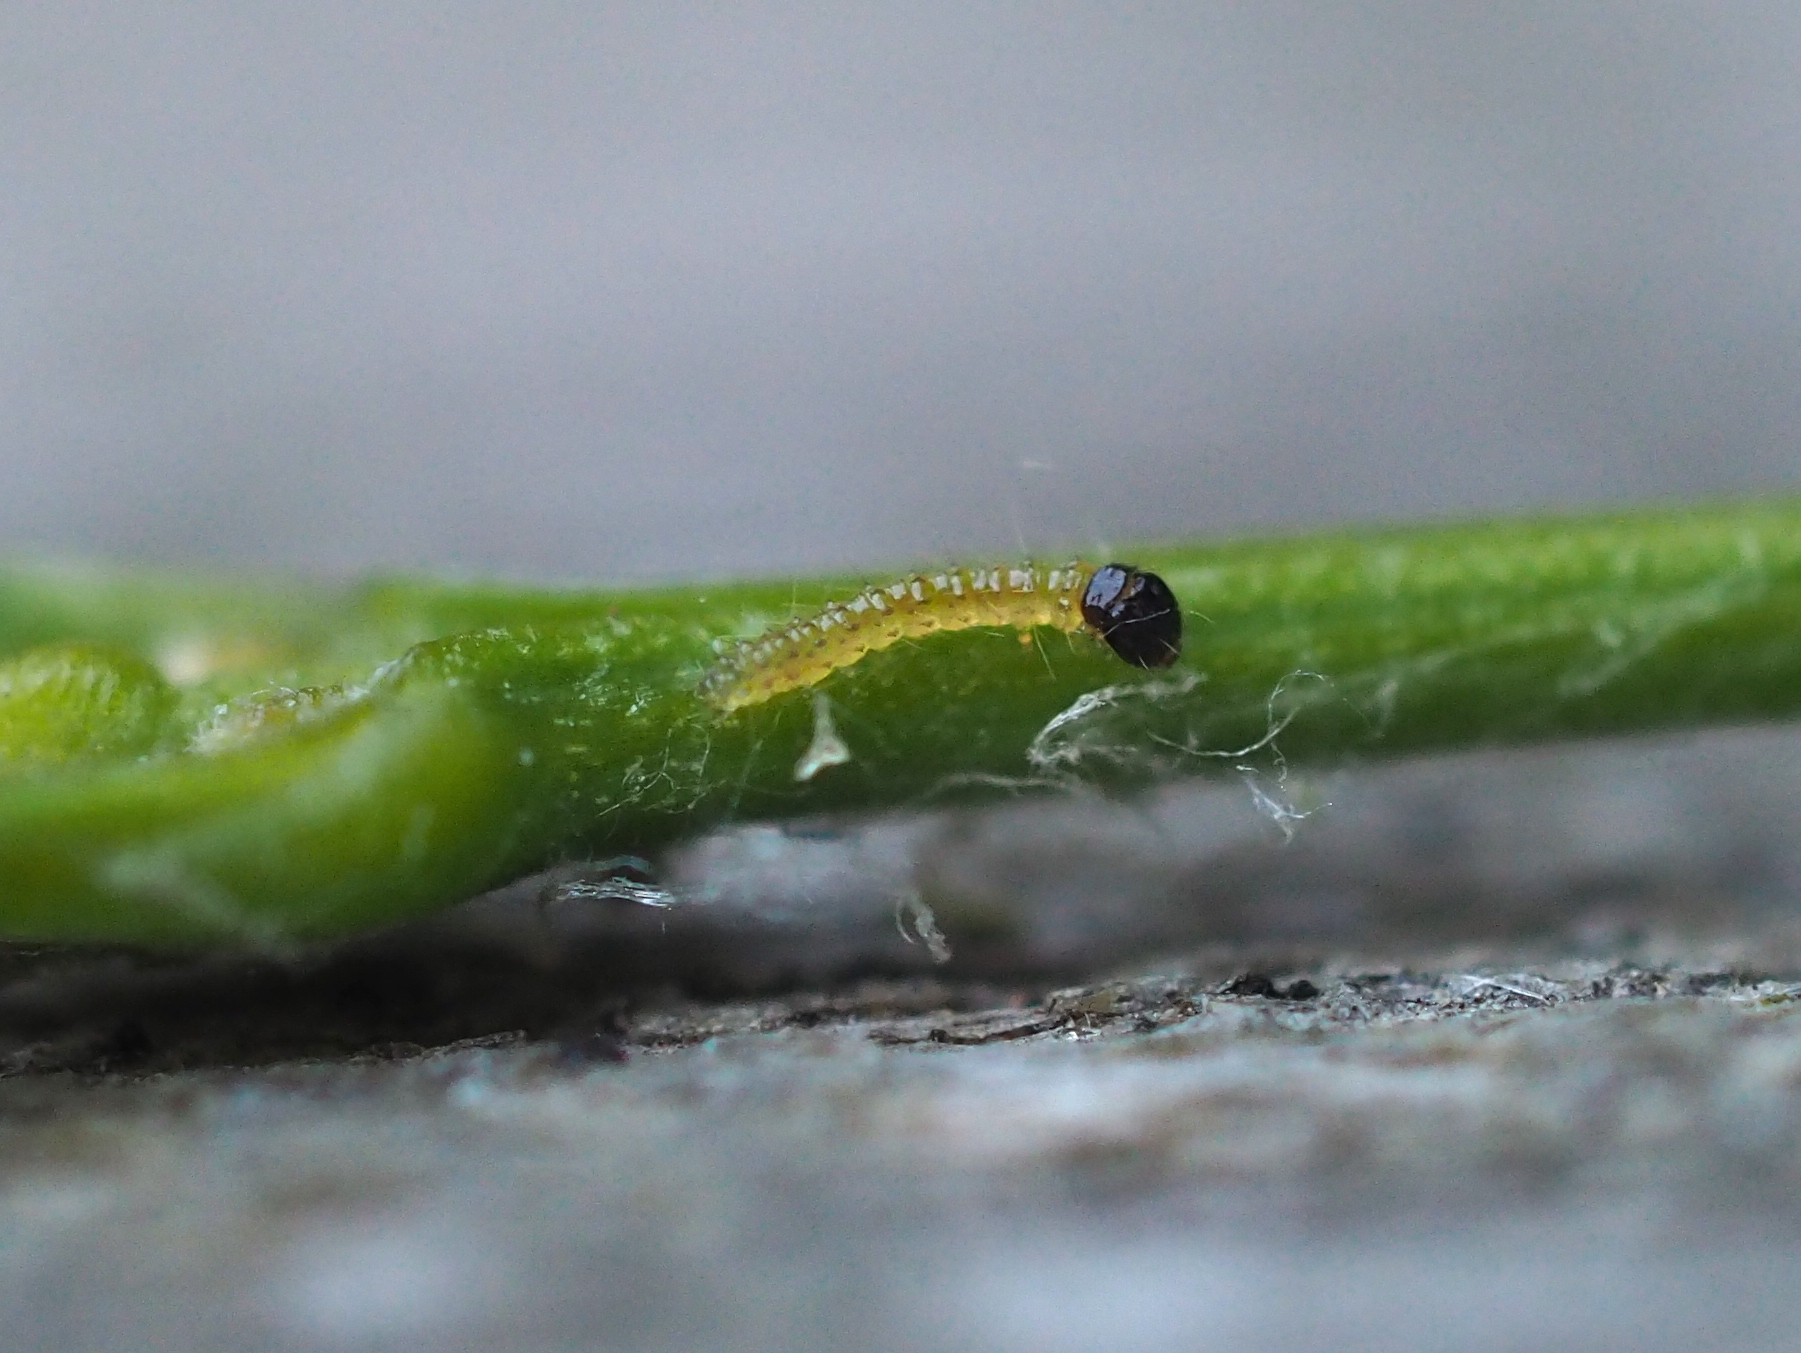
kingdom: Animalia
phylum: Arthropoda
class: Insecta
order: Lepidoptera
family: Crambidae
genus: Cydalima
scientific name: Cydalima perspectalis
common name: Box tree moth
